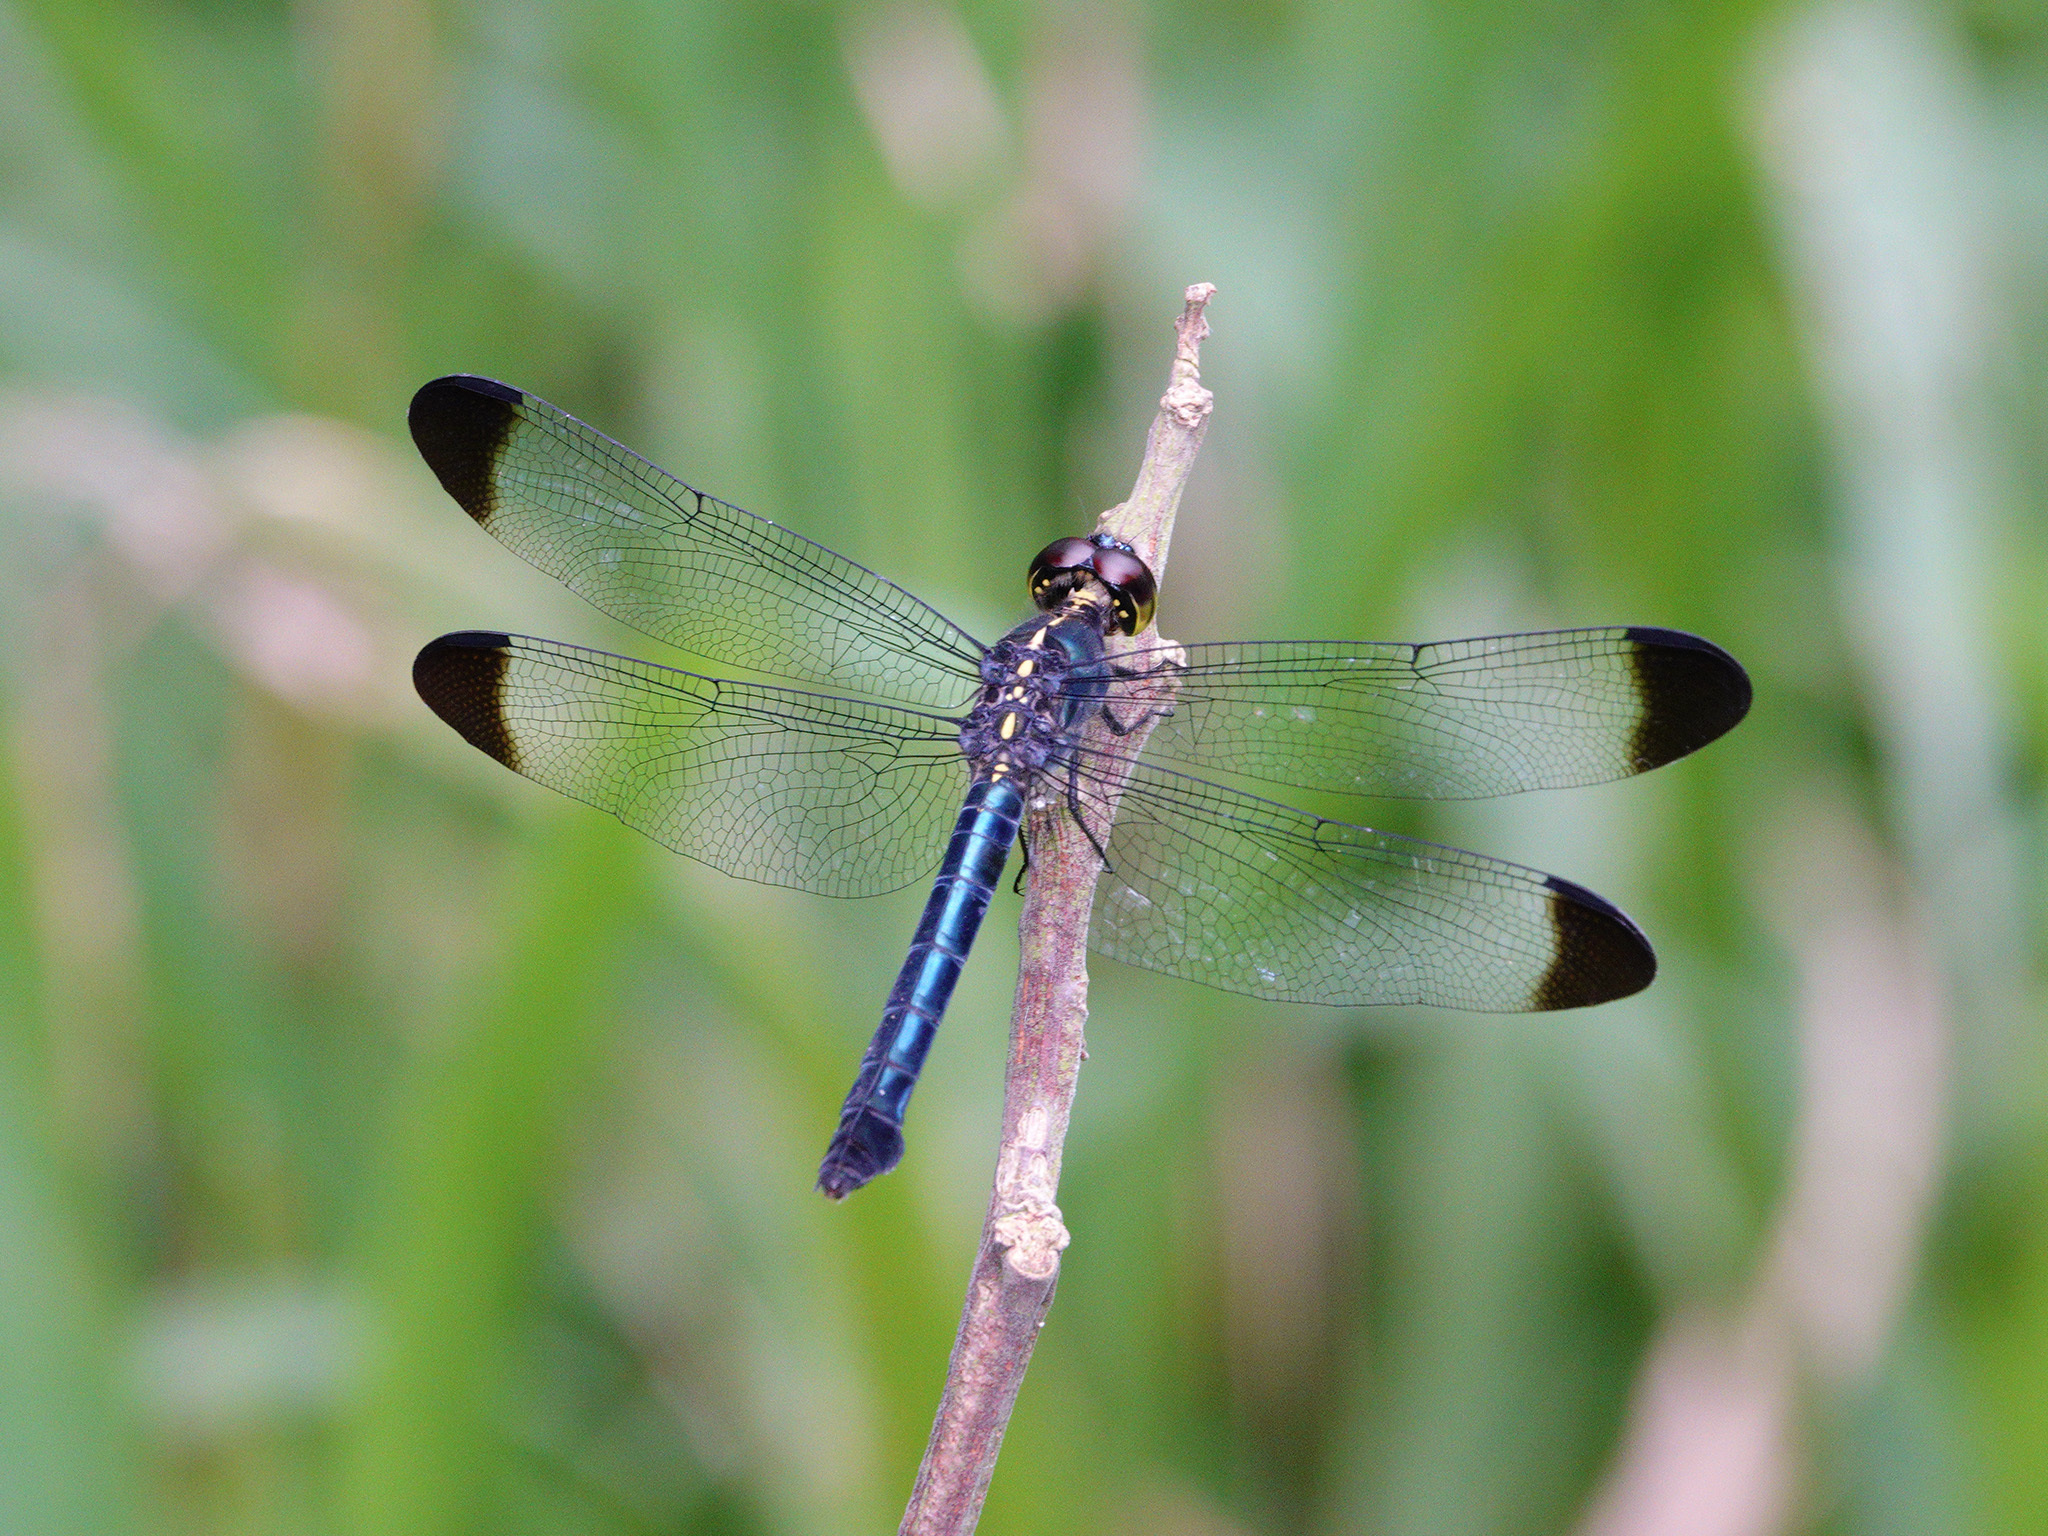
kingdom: Animalia
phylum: Arthropoda
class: Insecta
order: Odonata
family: Libellulidae
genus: Cratilla
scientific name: Cratilla metallica
